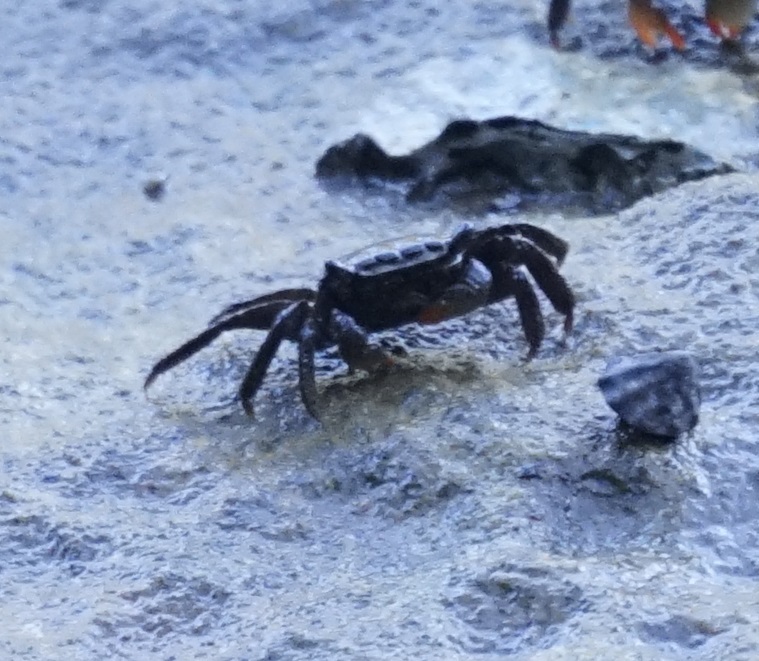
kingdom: Animalia
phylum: Arthropoda
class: Malacostraca
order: Decapoda
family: Sesarmidae
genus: Parasesarma
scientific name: Parasesarma erythodactylum
